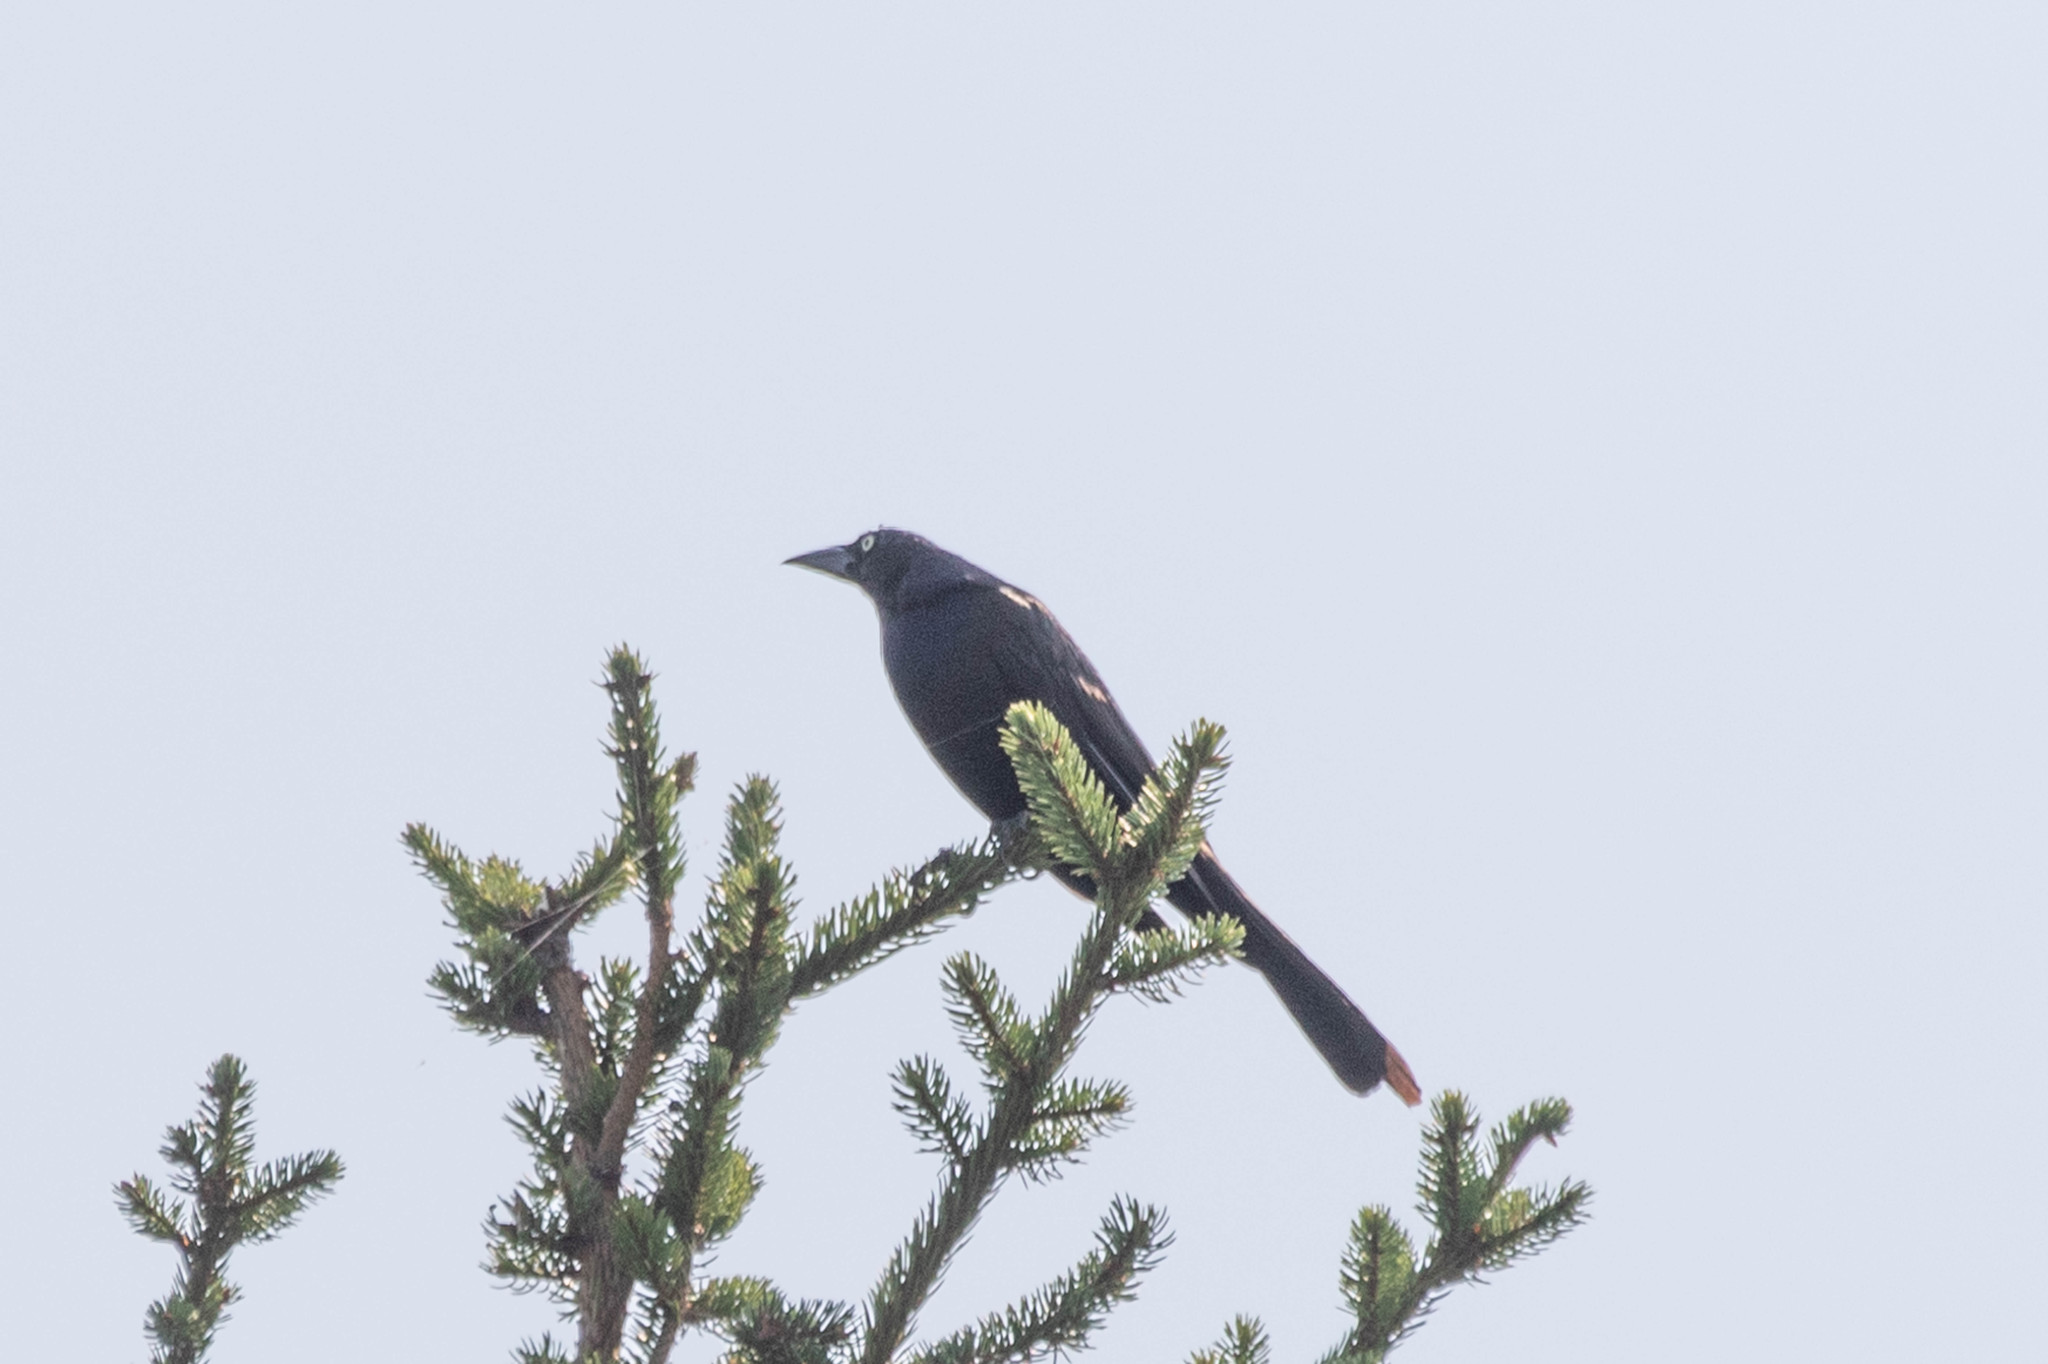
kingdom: Animalia
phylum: Chordata
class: Aves
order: Passeriformes
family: Icteridae
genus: Quiscalus
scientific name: Quiscalus quiscula
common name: Common grackle
